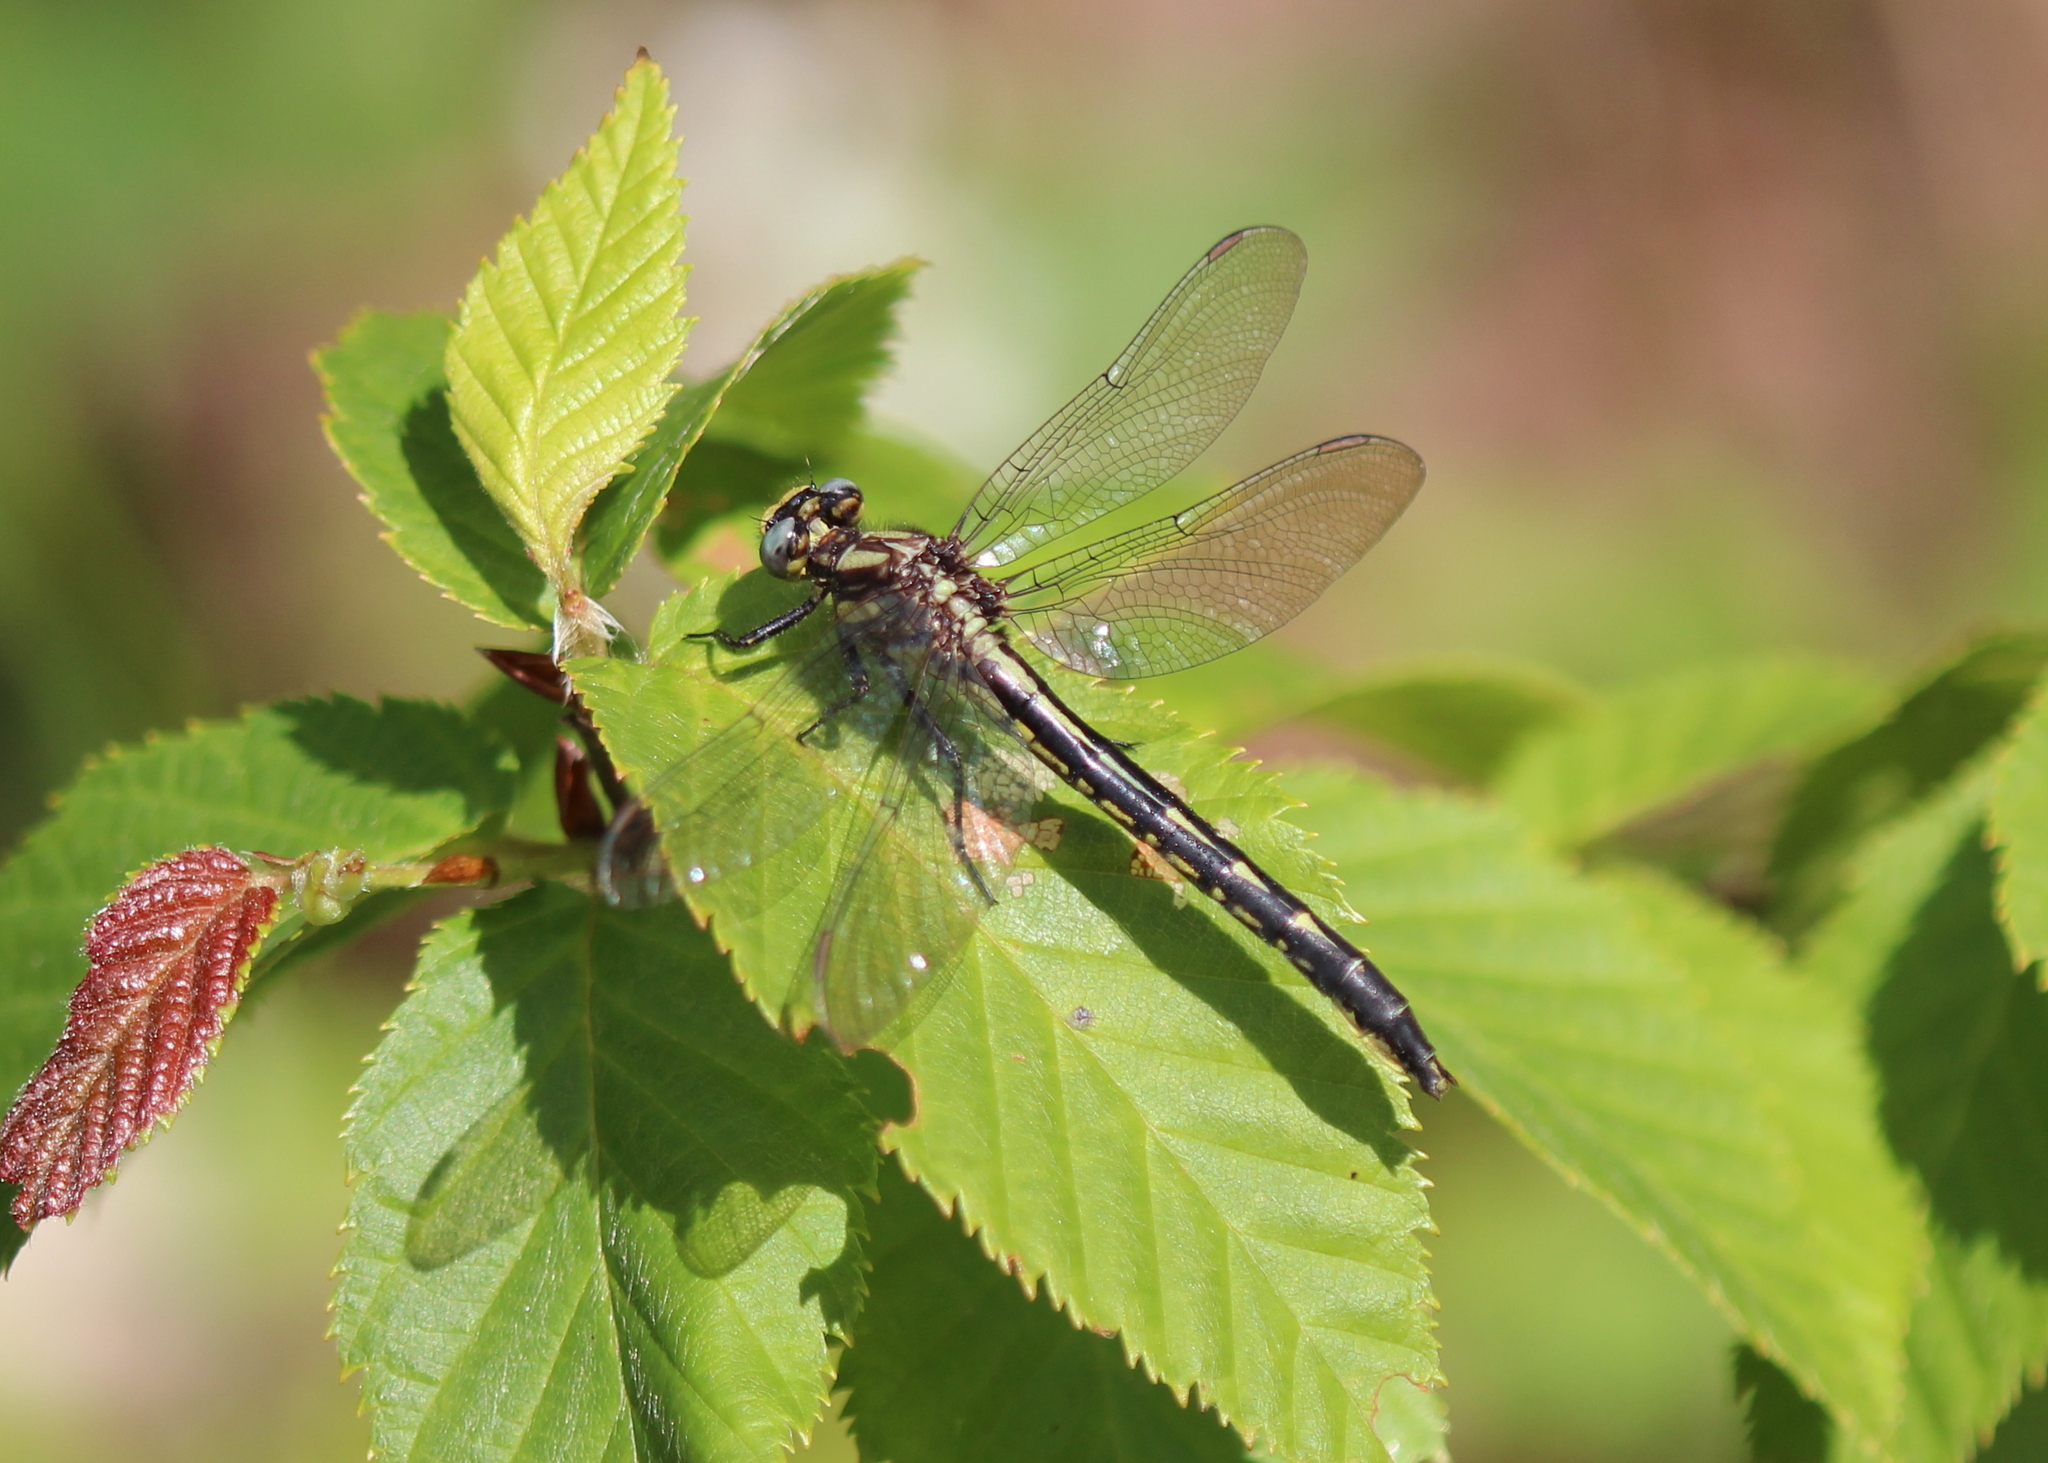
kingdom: Animalia
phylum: Arthropoda
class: Insecta
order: Odonata
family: Gomphidae
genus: Phanogomphus
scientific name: Phanogomphus borealis
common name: Beaverpond clubtail
